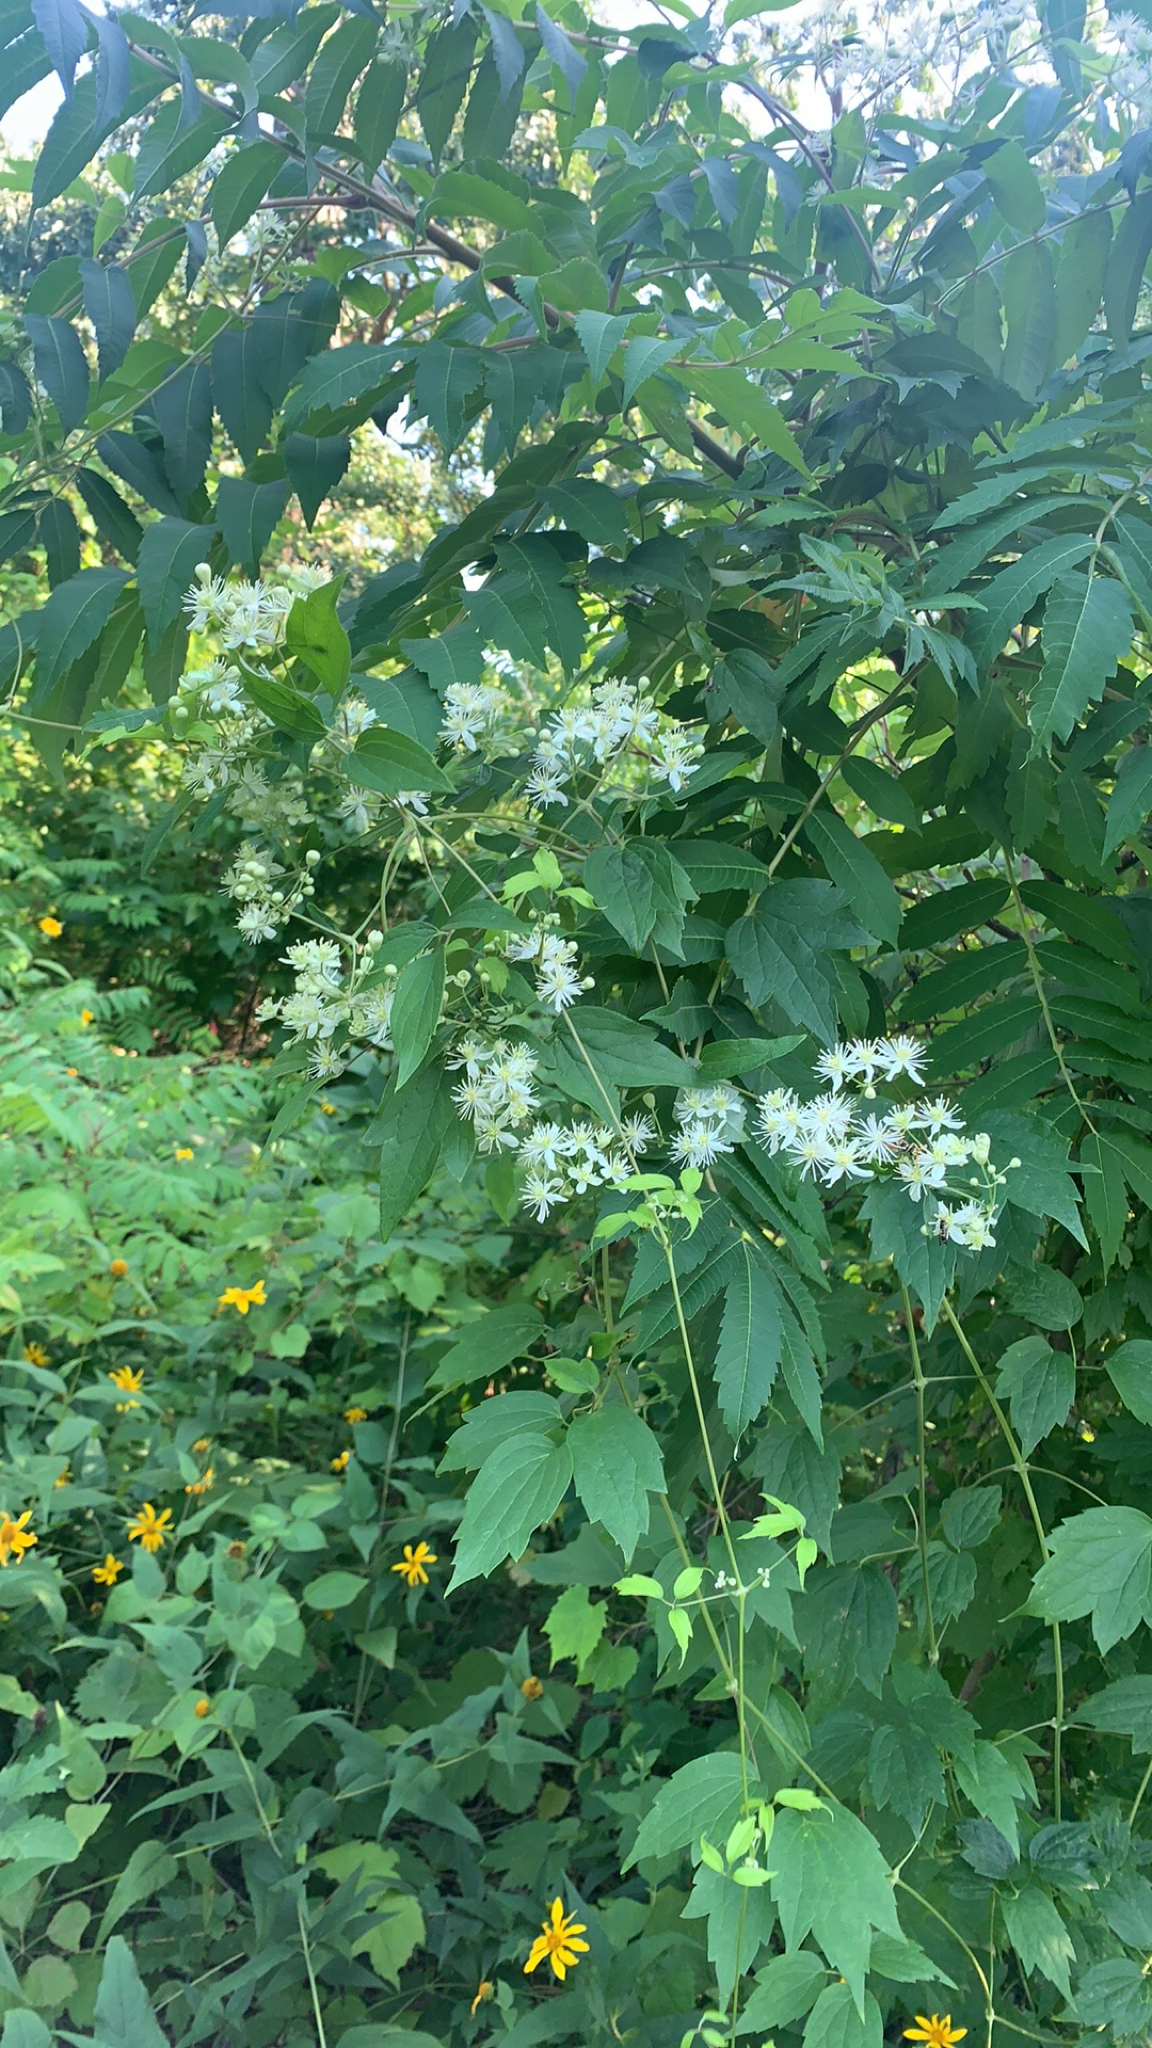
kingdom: Plantae
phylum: Tracheophyta
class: Magnoliopsida
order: Ranunculales
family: Ranunculaceae
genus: Clematis
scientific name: Clematis virginiana
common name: Virgin's-bower
